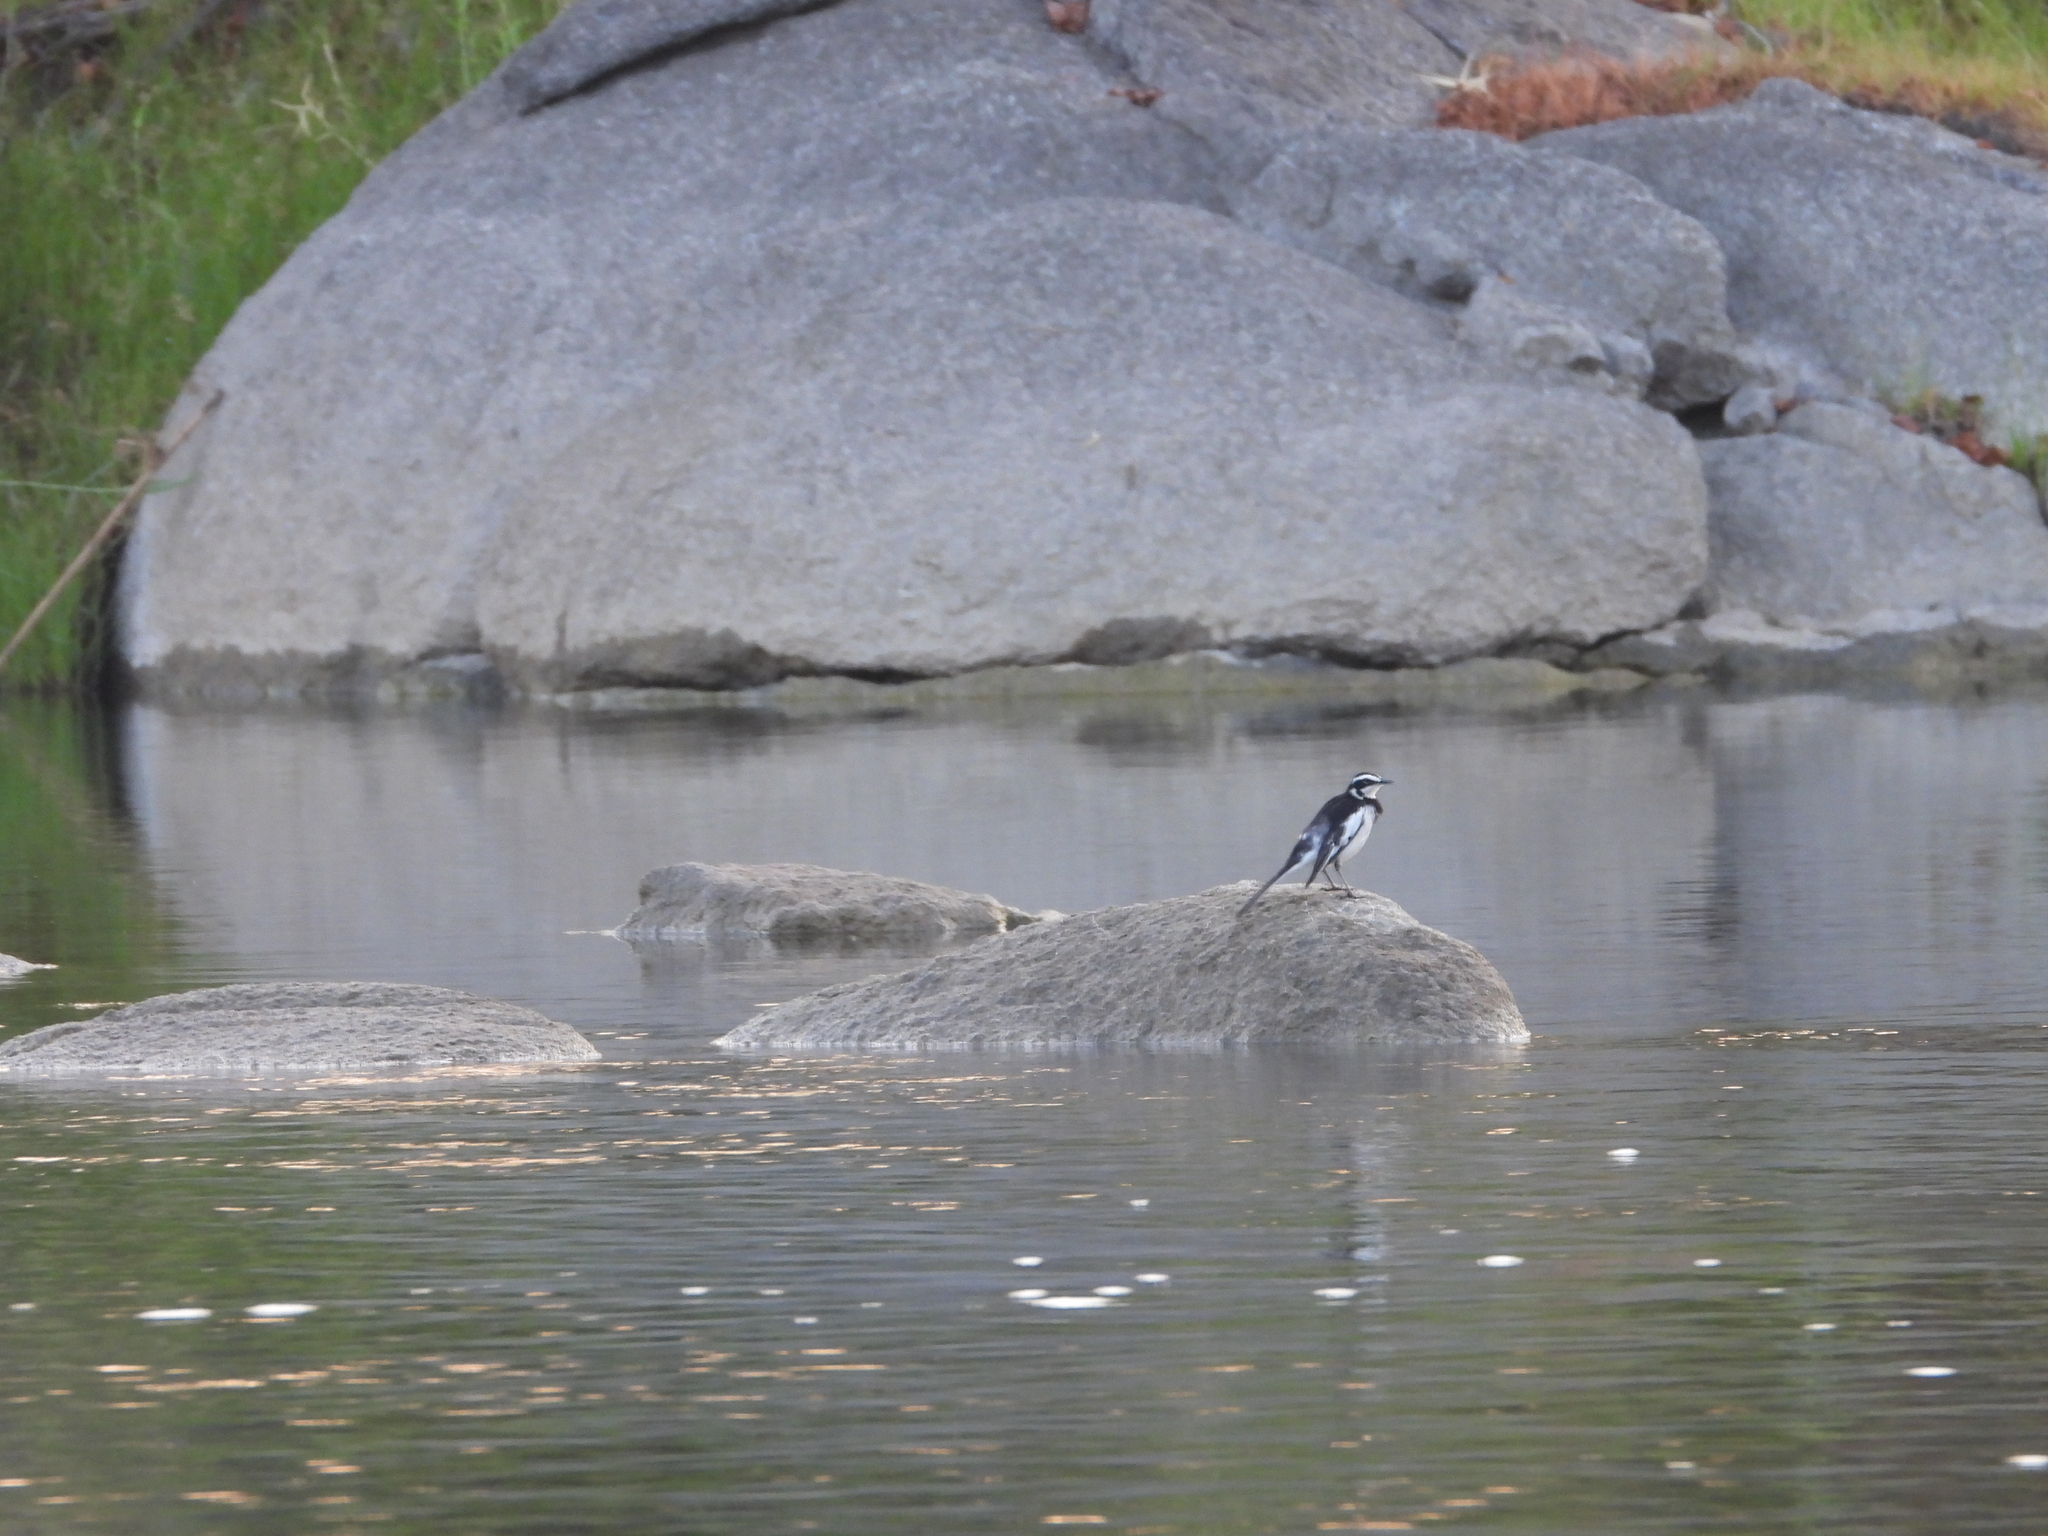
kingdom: Animalia
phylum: Chordata
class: Aves
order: Passeriformes
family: Motacillidae
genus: Motacilla
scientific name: Motacilla aguimp
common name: African pied wagtail
